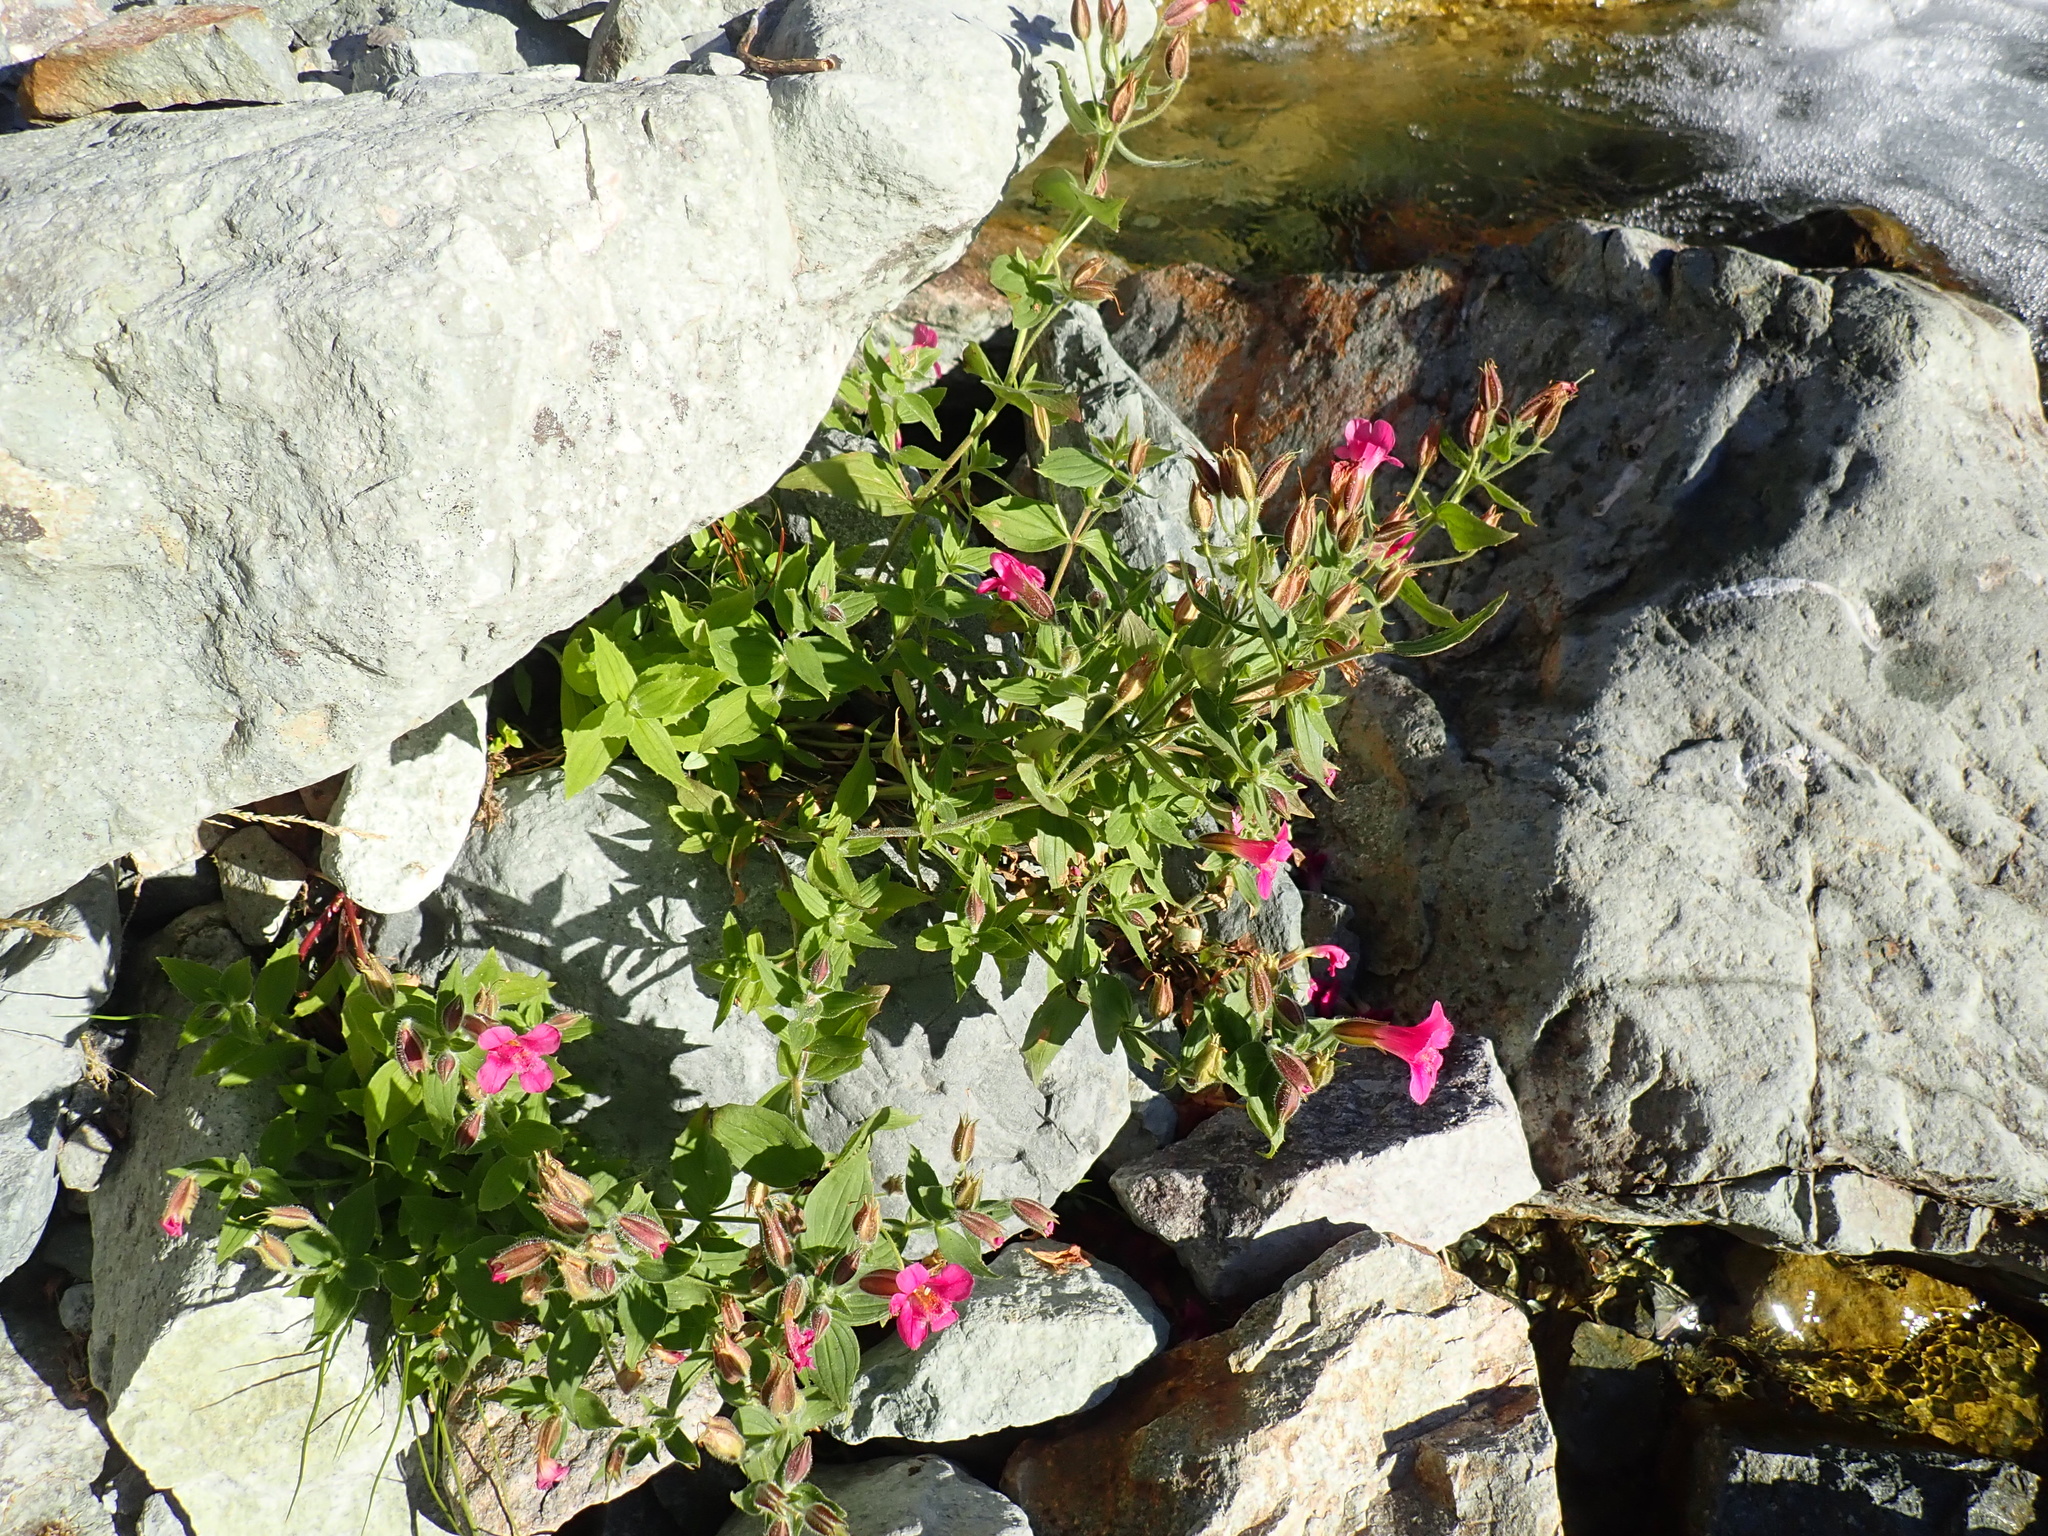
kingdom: Plantae
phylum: Tracheophyta
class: Magnoliopsida
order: Lamiales
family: Phrymaceae
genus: Erythranthe
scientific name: Erythranthe lewisii
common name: Lewis's monkey-flower
